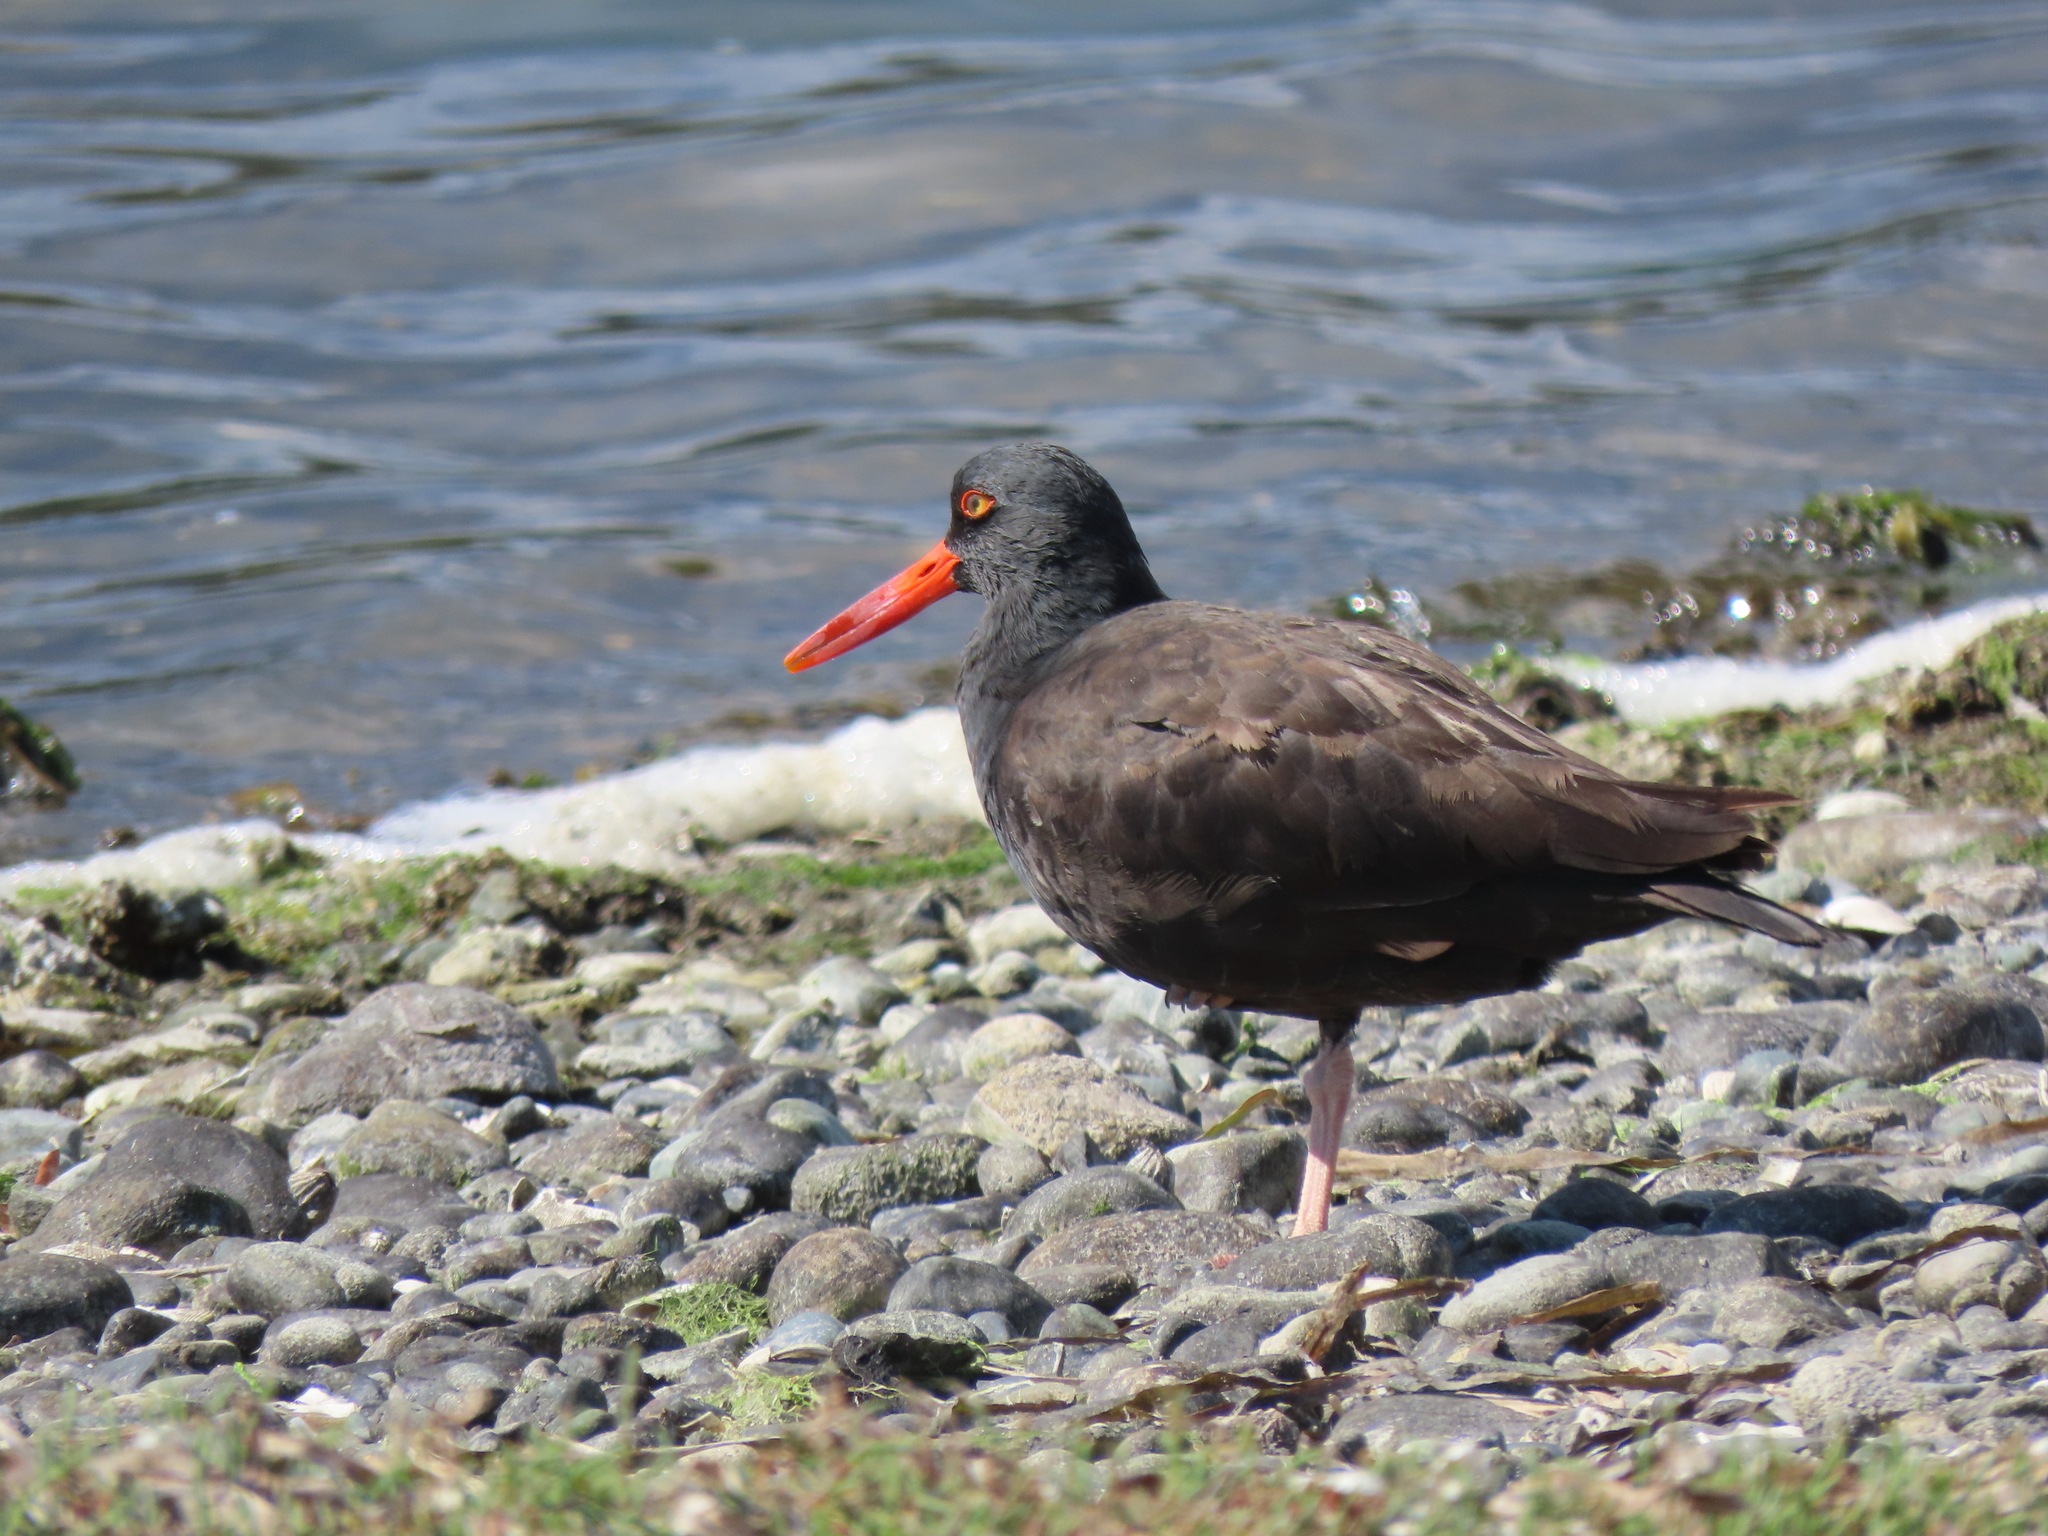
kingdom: Animalia
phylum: Chordata
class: Aves
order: Charadriiformes
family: Haematopodidae
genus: Haematopus
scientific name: Haematopus bachmani
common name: Black oystercatcher
